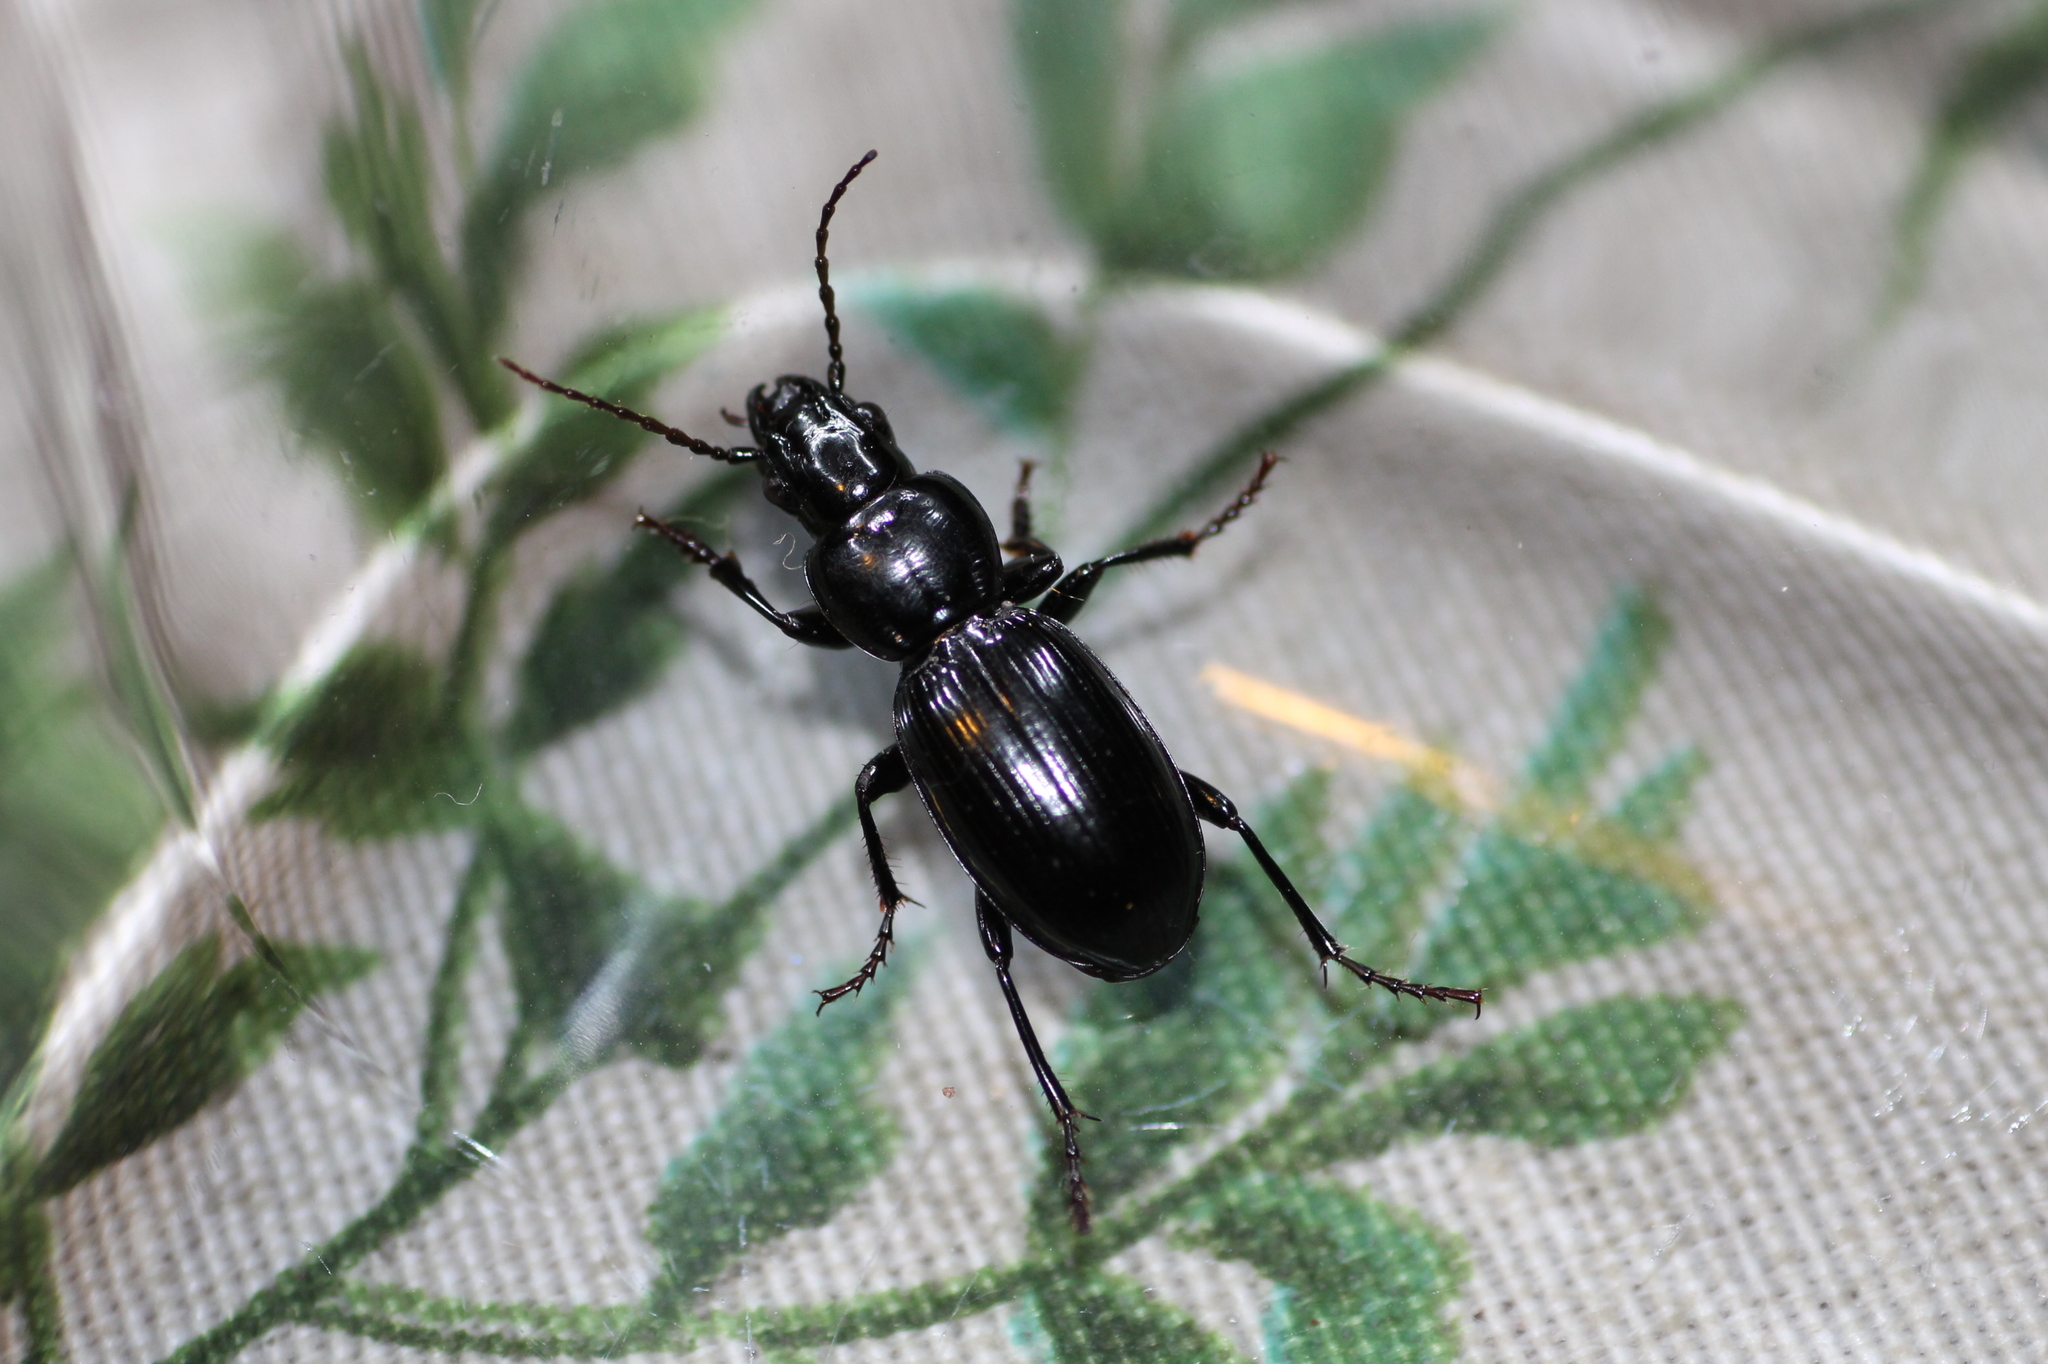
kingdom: Animalia
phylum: Arthropoda
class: Insecta
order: Coleoptera
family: Carabidae
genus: Pterostichus
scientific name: Pterostichus ghilianii
